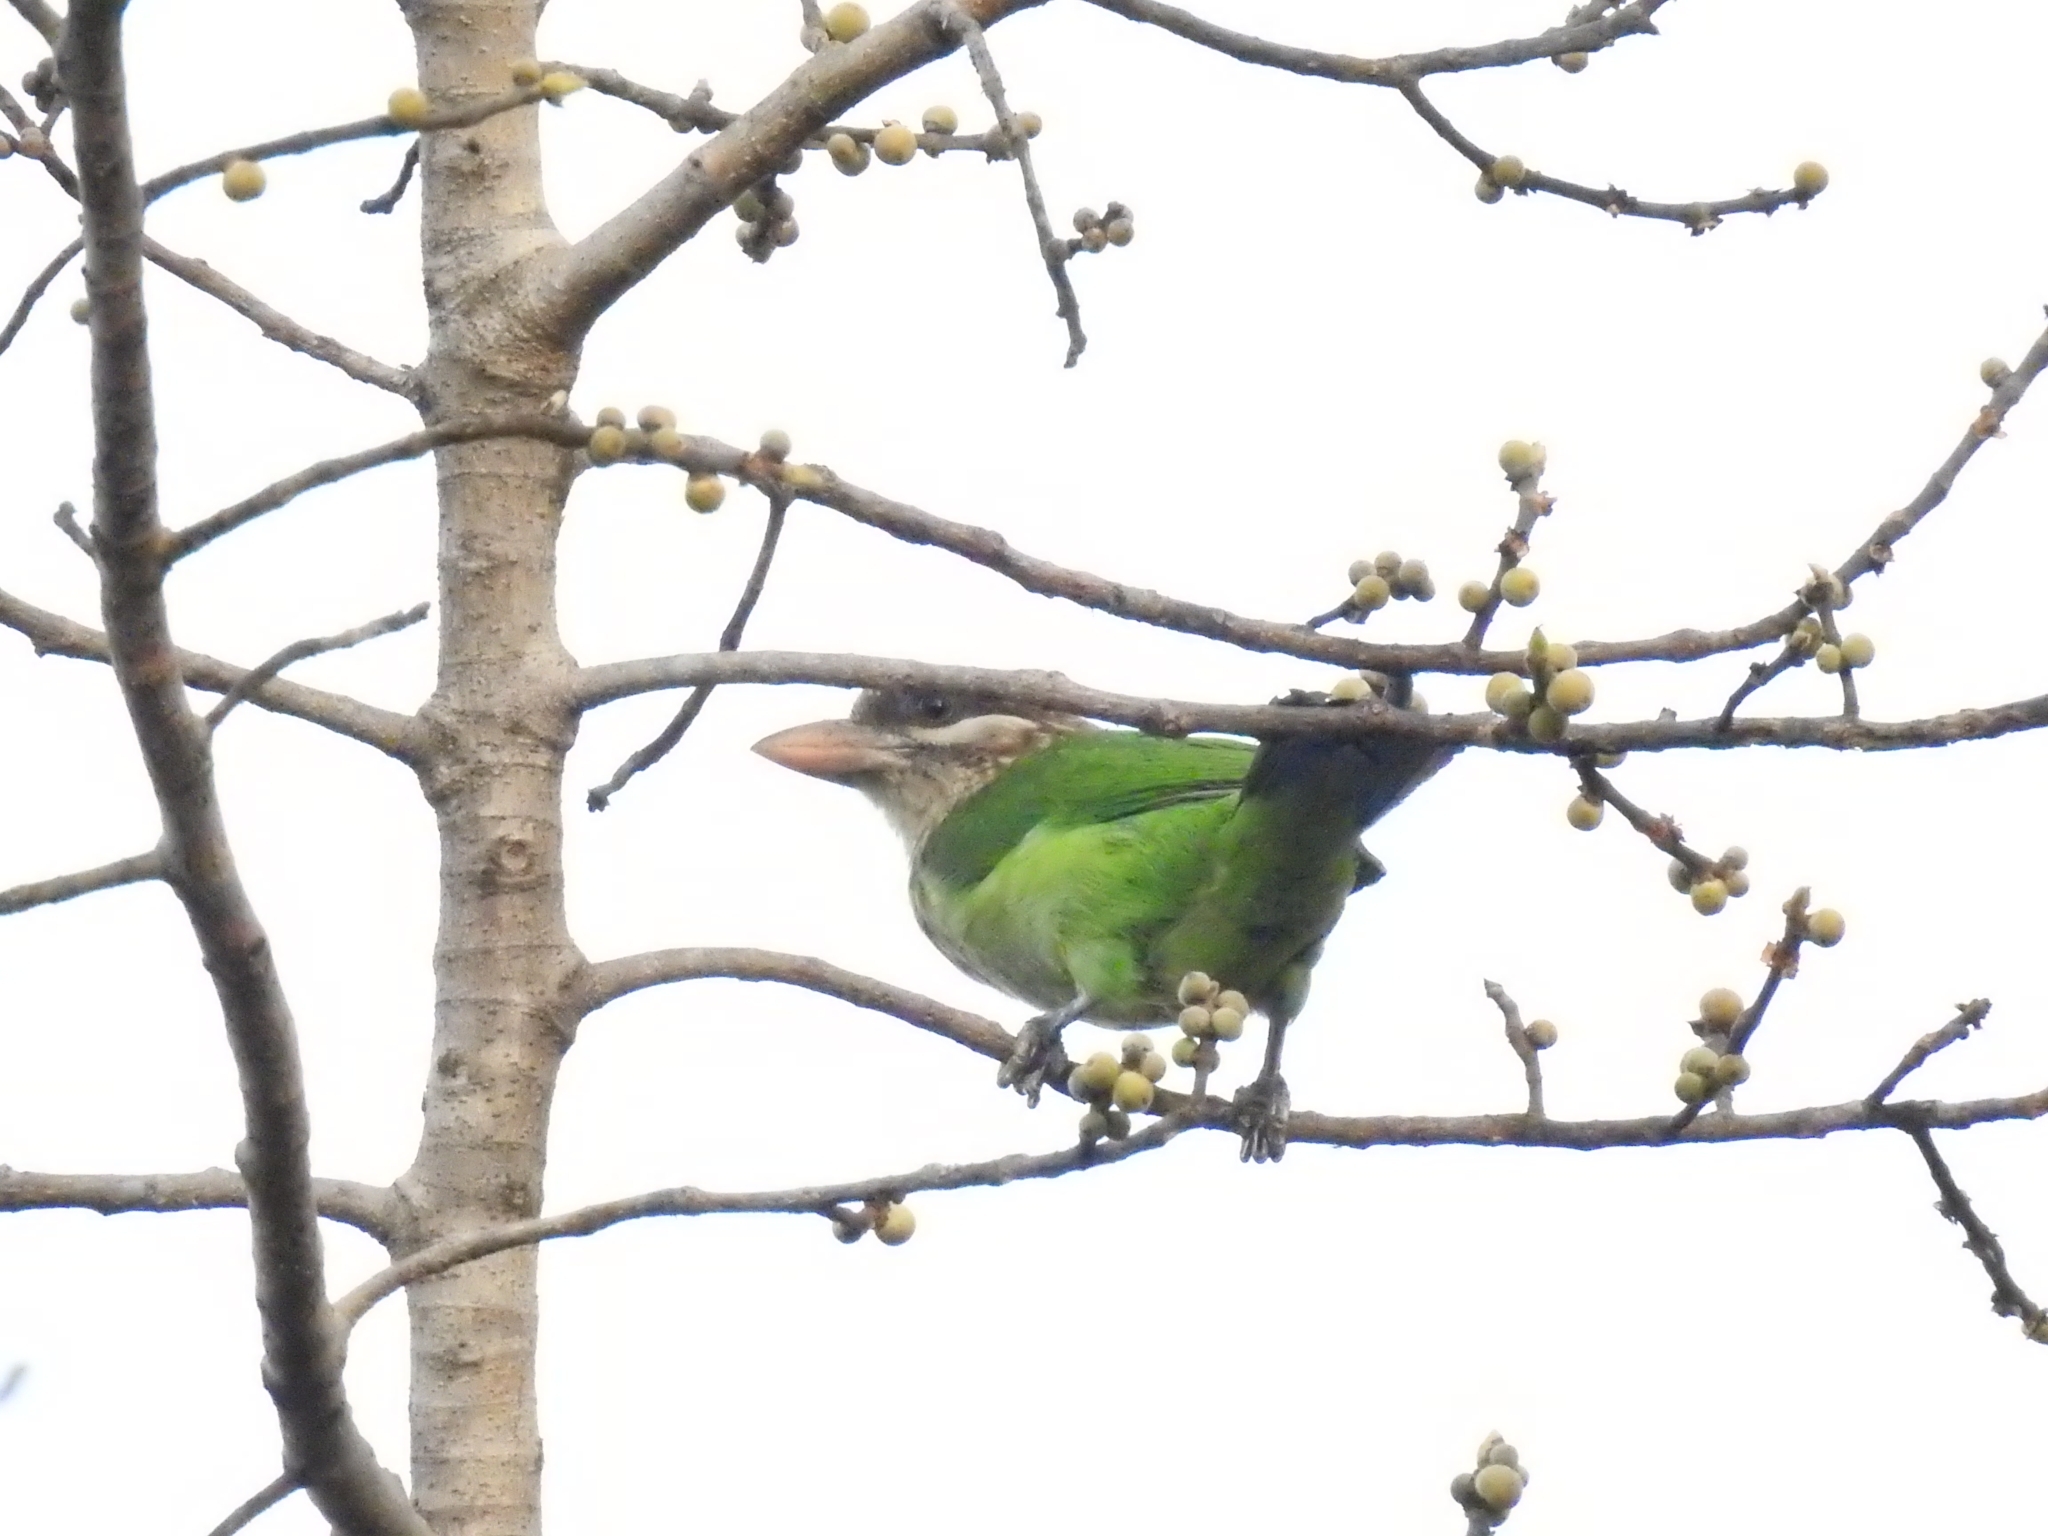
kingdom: Animalia
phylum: Chordata
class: Aves
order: Piciformes
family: Megalaimidae
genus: Psilopogon
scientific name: Psilopogon viridis
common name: White-cheeked barbet
